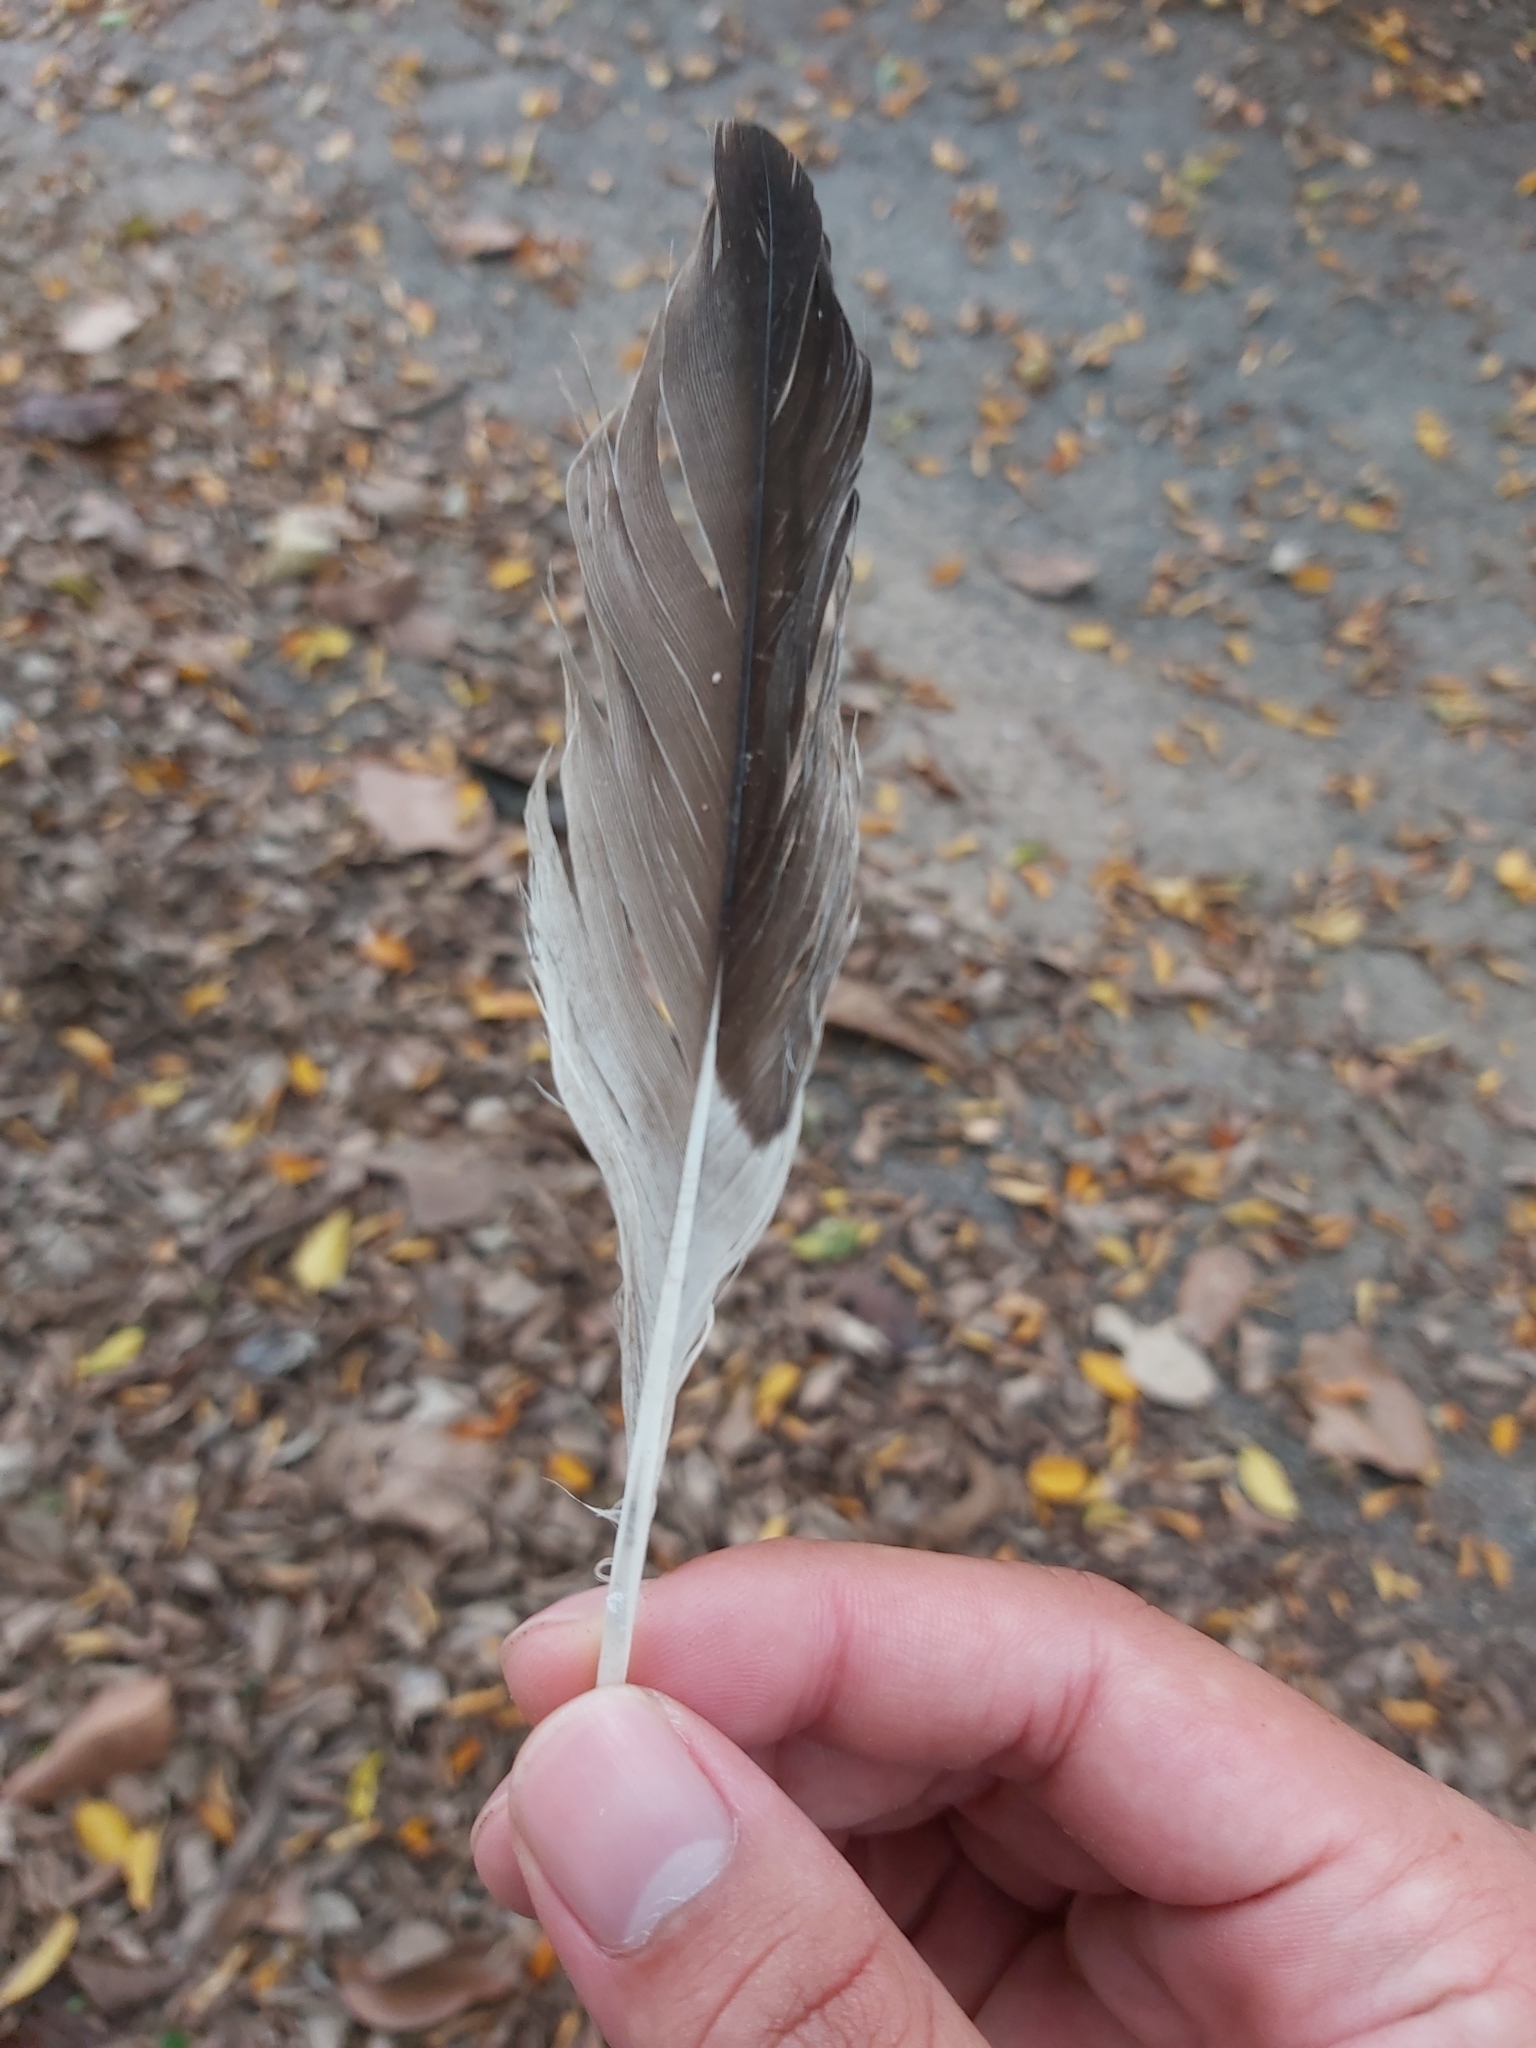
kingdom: Animalia
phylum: Chordata
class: Aves
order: Charadriiformes
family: Burhinidae
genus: Burhinus
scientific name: Burhinus grallarius
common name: Bush stone-curlew
